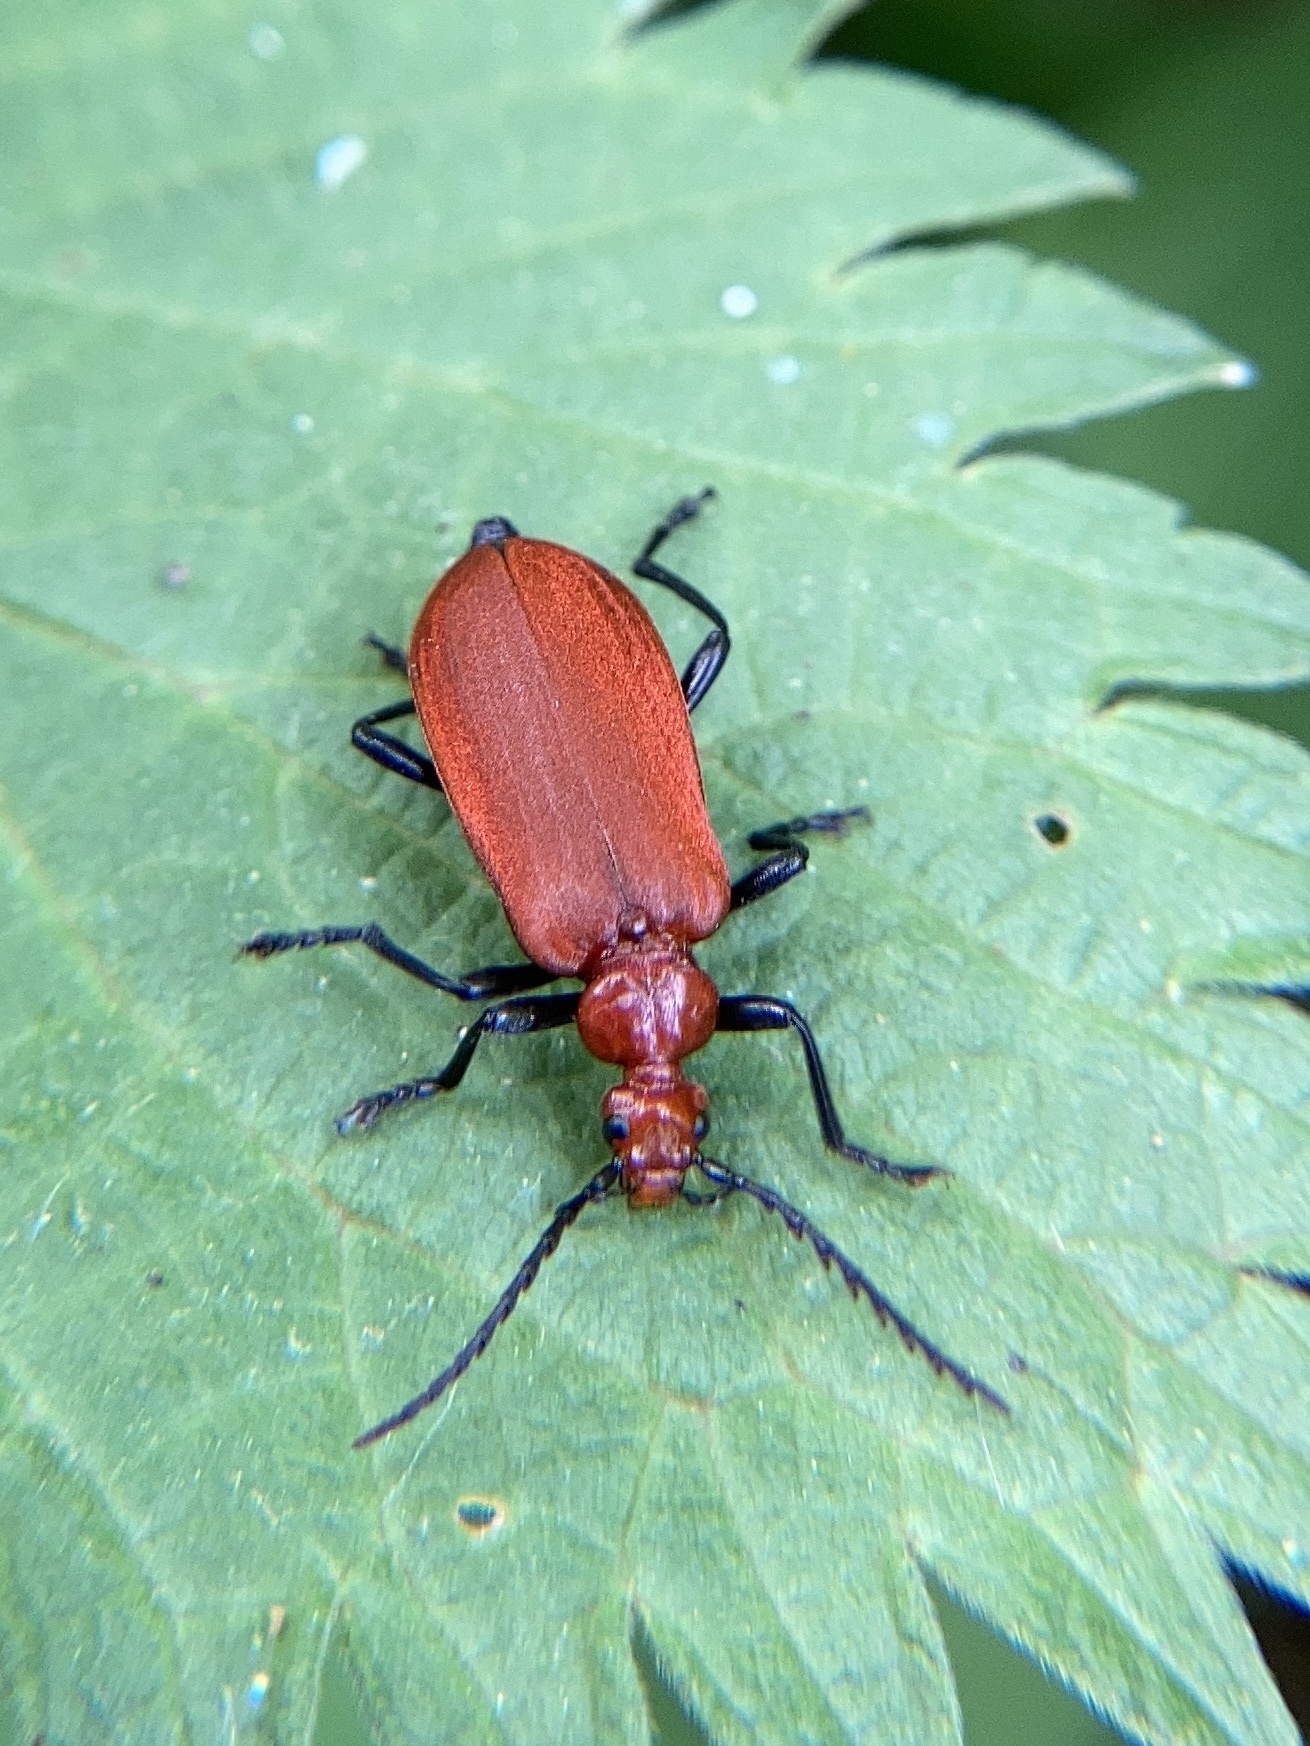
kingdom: Animalia
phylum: Arthropoda
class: Insecta
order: Coleoptera
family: Pyrochroidae
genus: Pyrochroa
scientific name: Pyrochroa serraticornis
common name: Red-headed cardinal beetle
